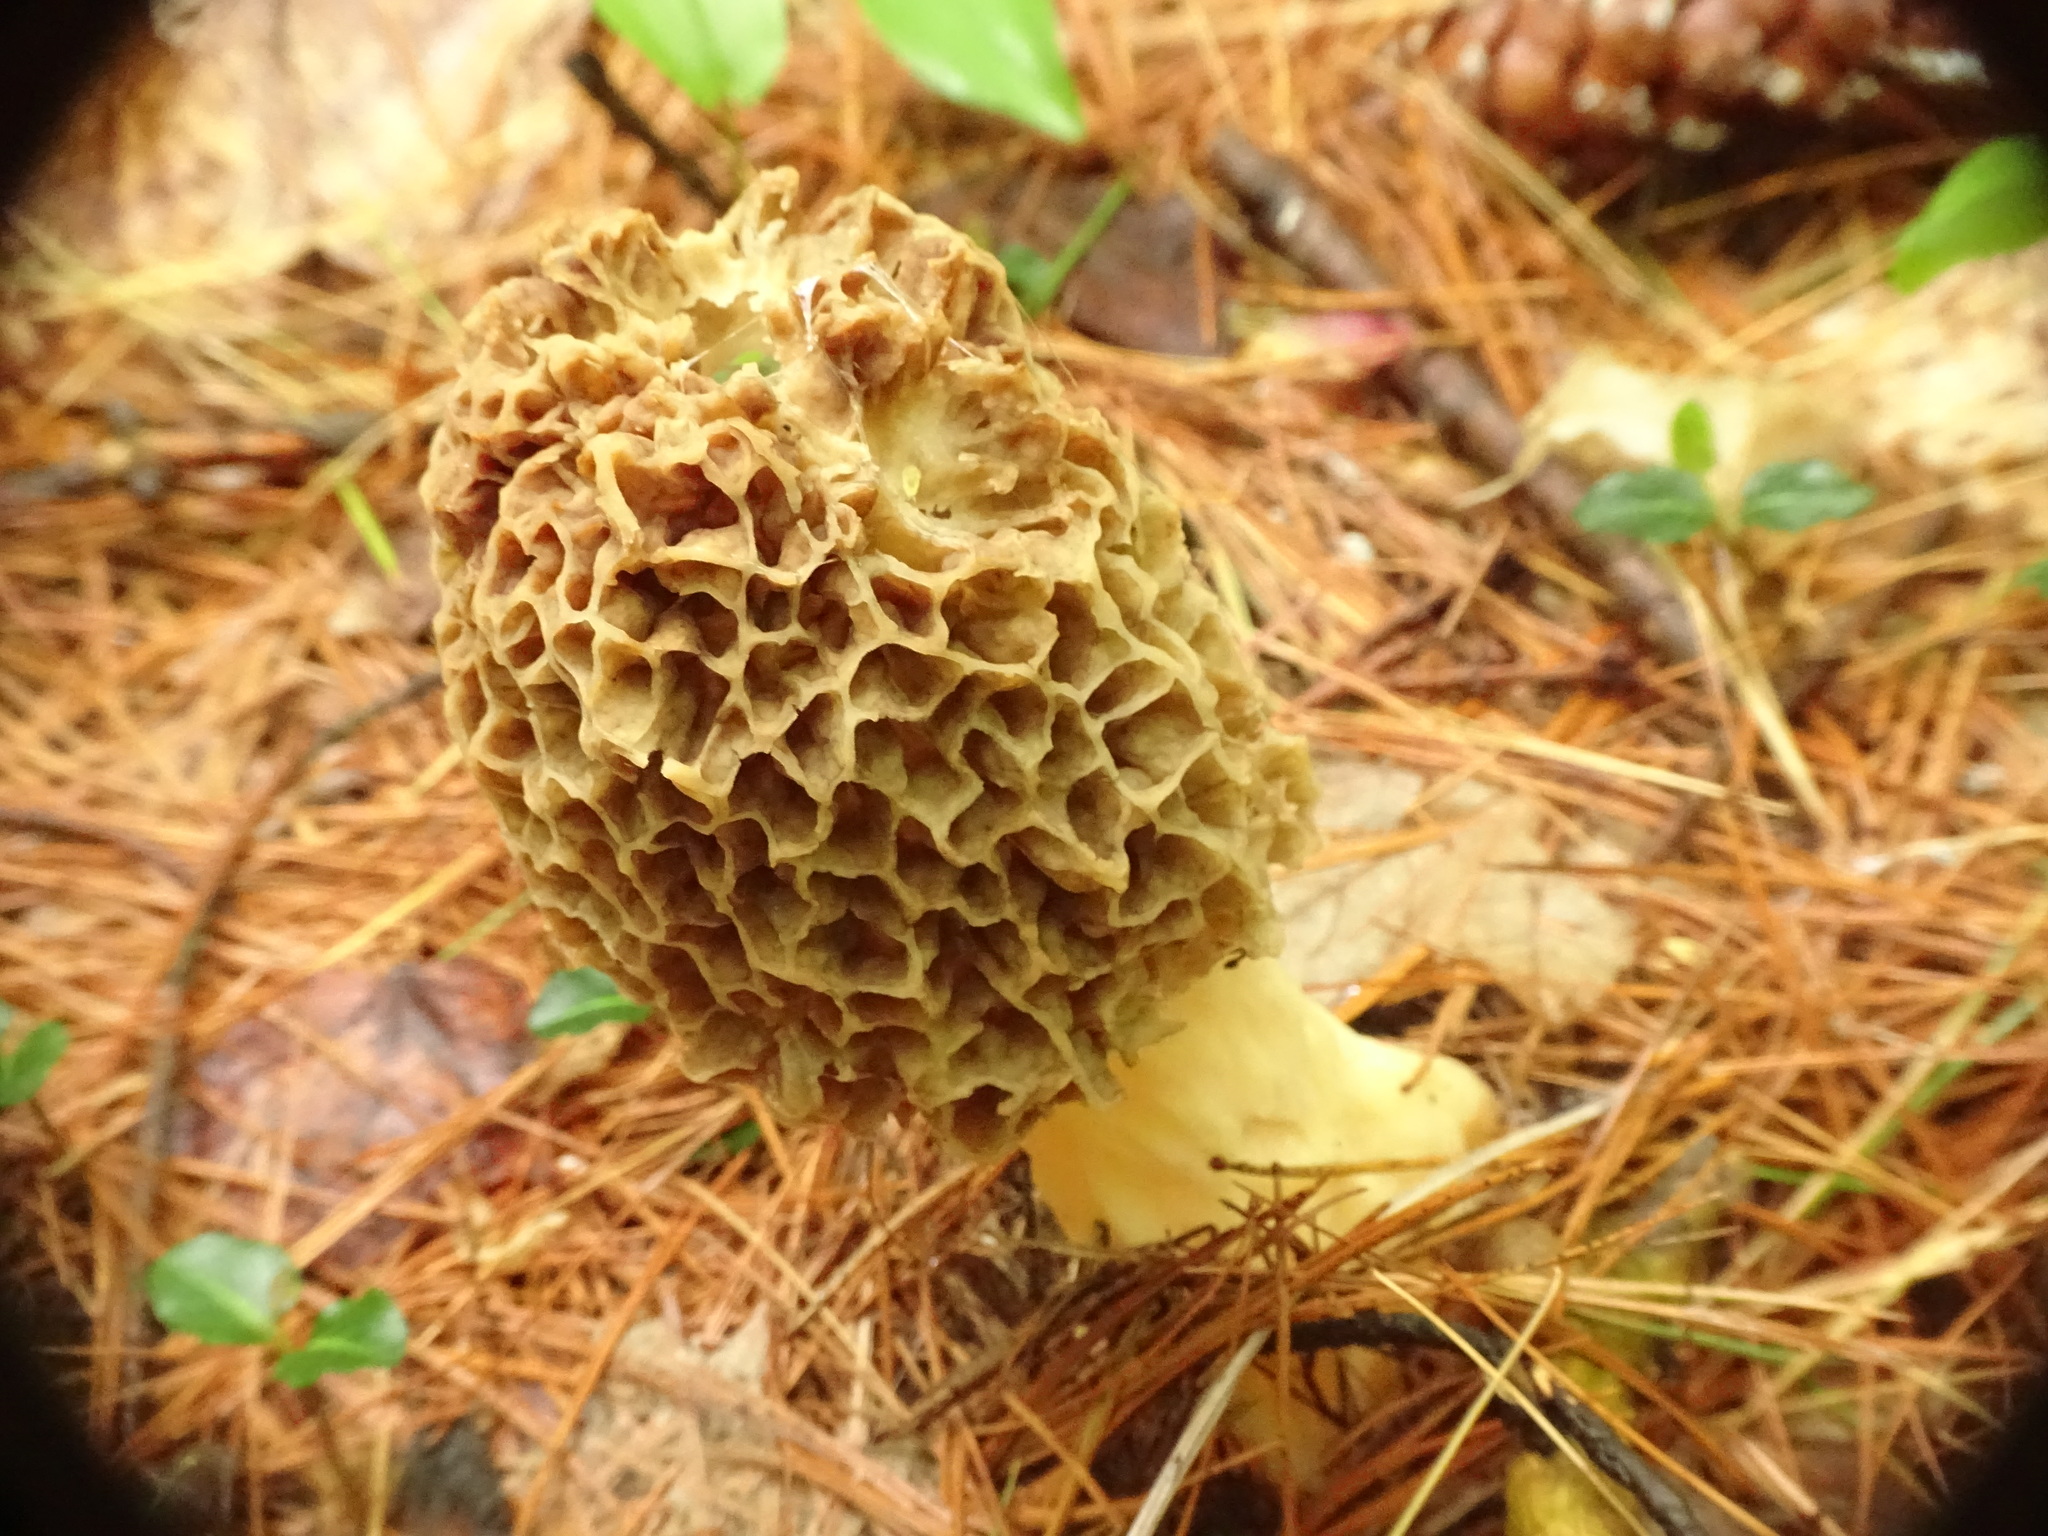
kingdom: Fungi
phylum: Ascomycota
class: Pezizomycetes
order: Pezizales
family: Morchellaceae
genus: Morchella
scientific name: Morchella americana
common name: White morel
